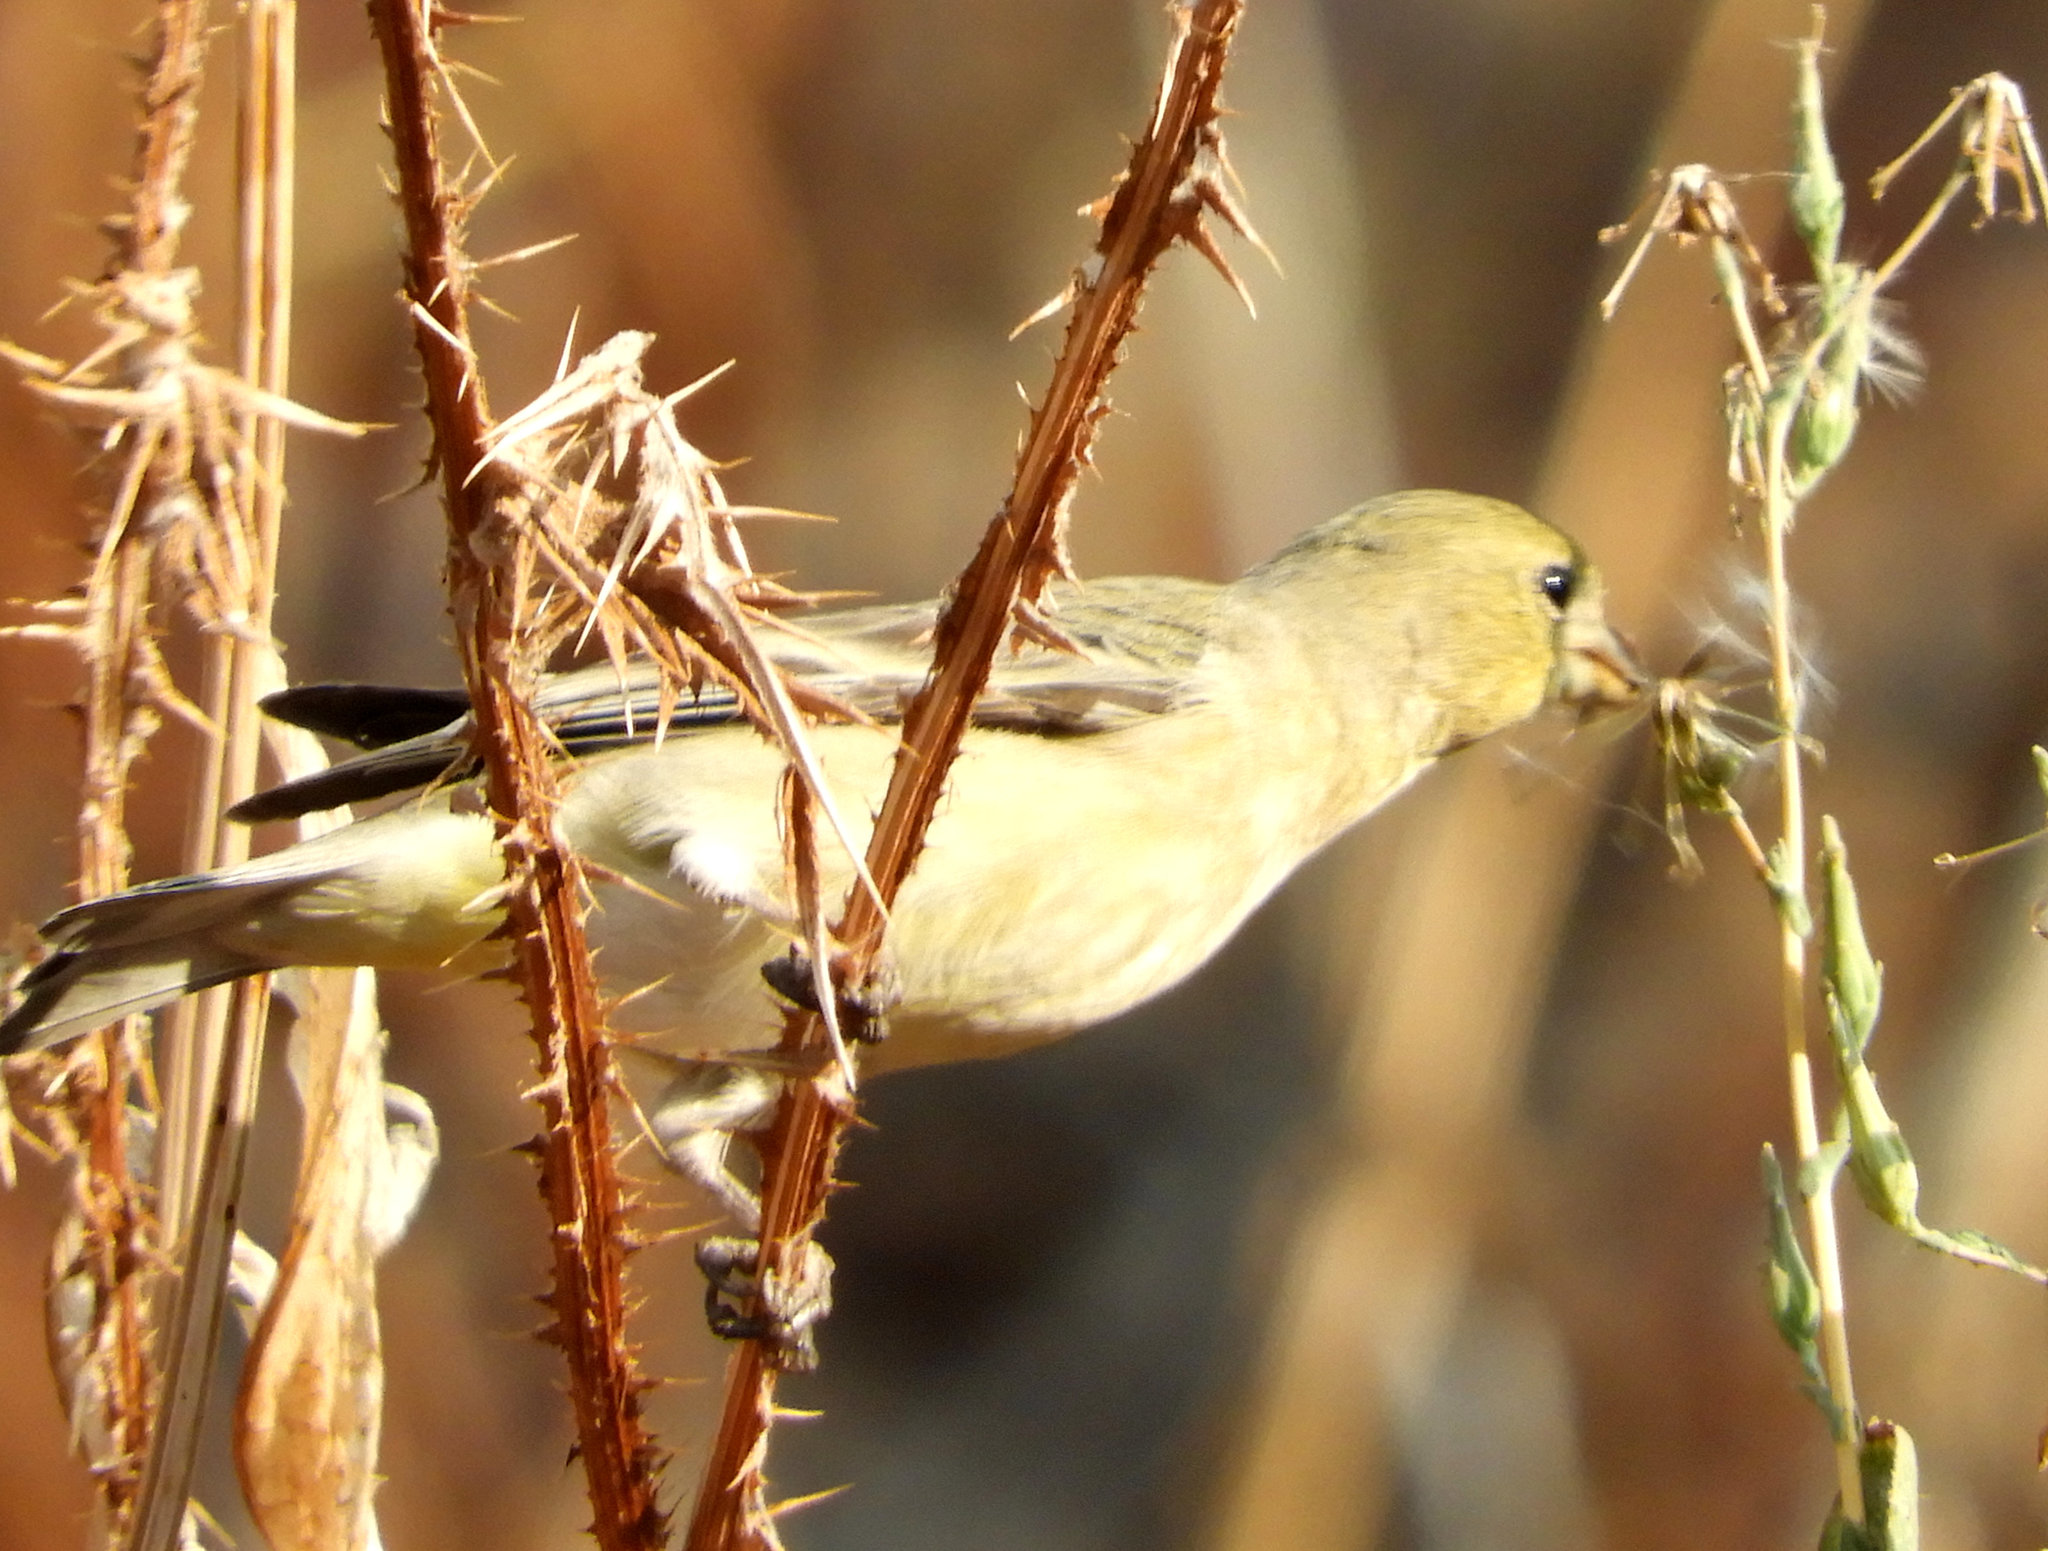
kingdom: Animalia
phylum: Chordata
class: Aves
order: Passeriformes
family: Fringillidae
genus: Spinus
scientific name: Spinus psaltria
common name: Lesser goldfinch
